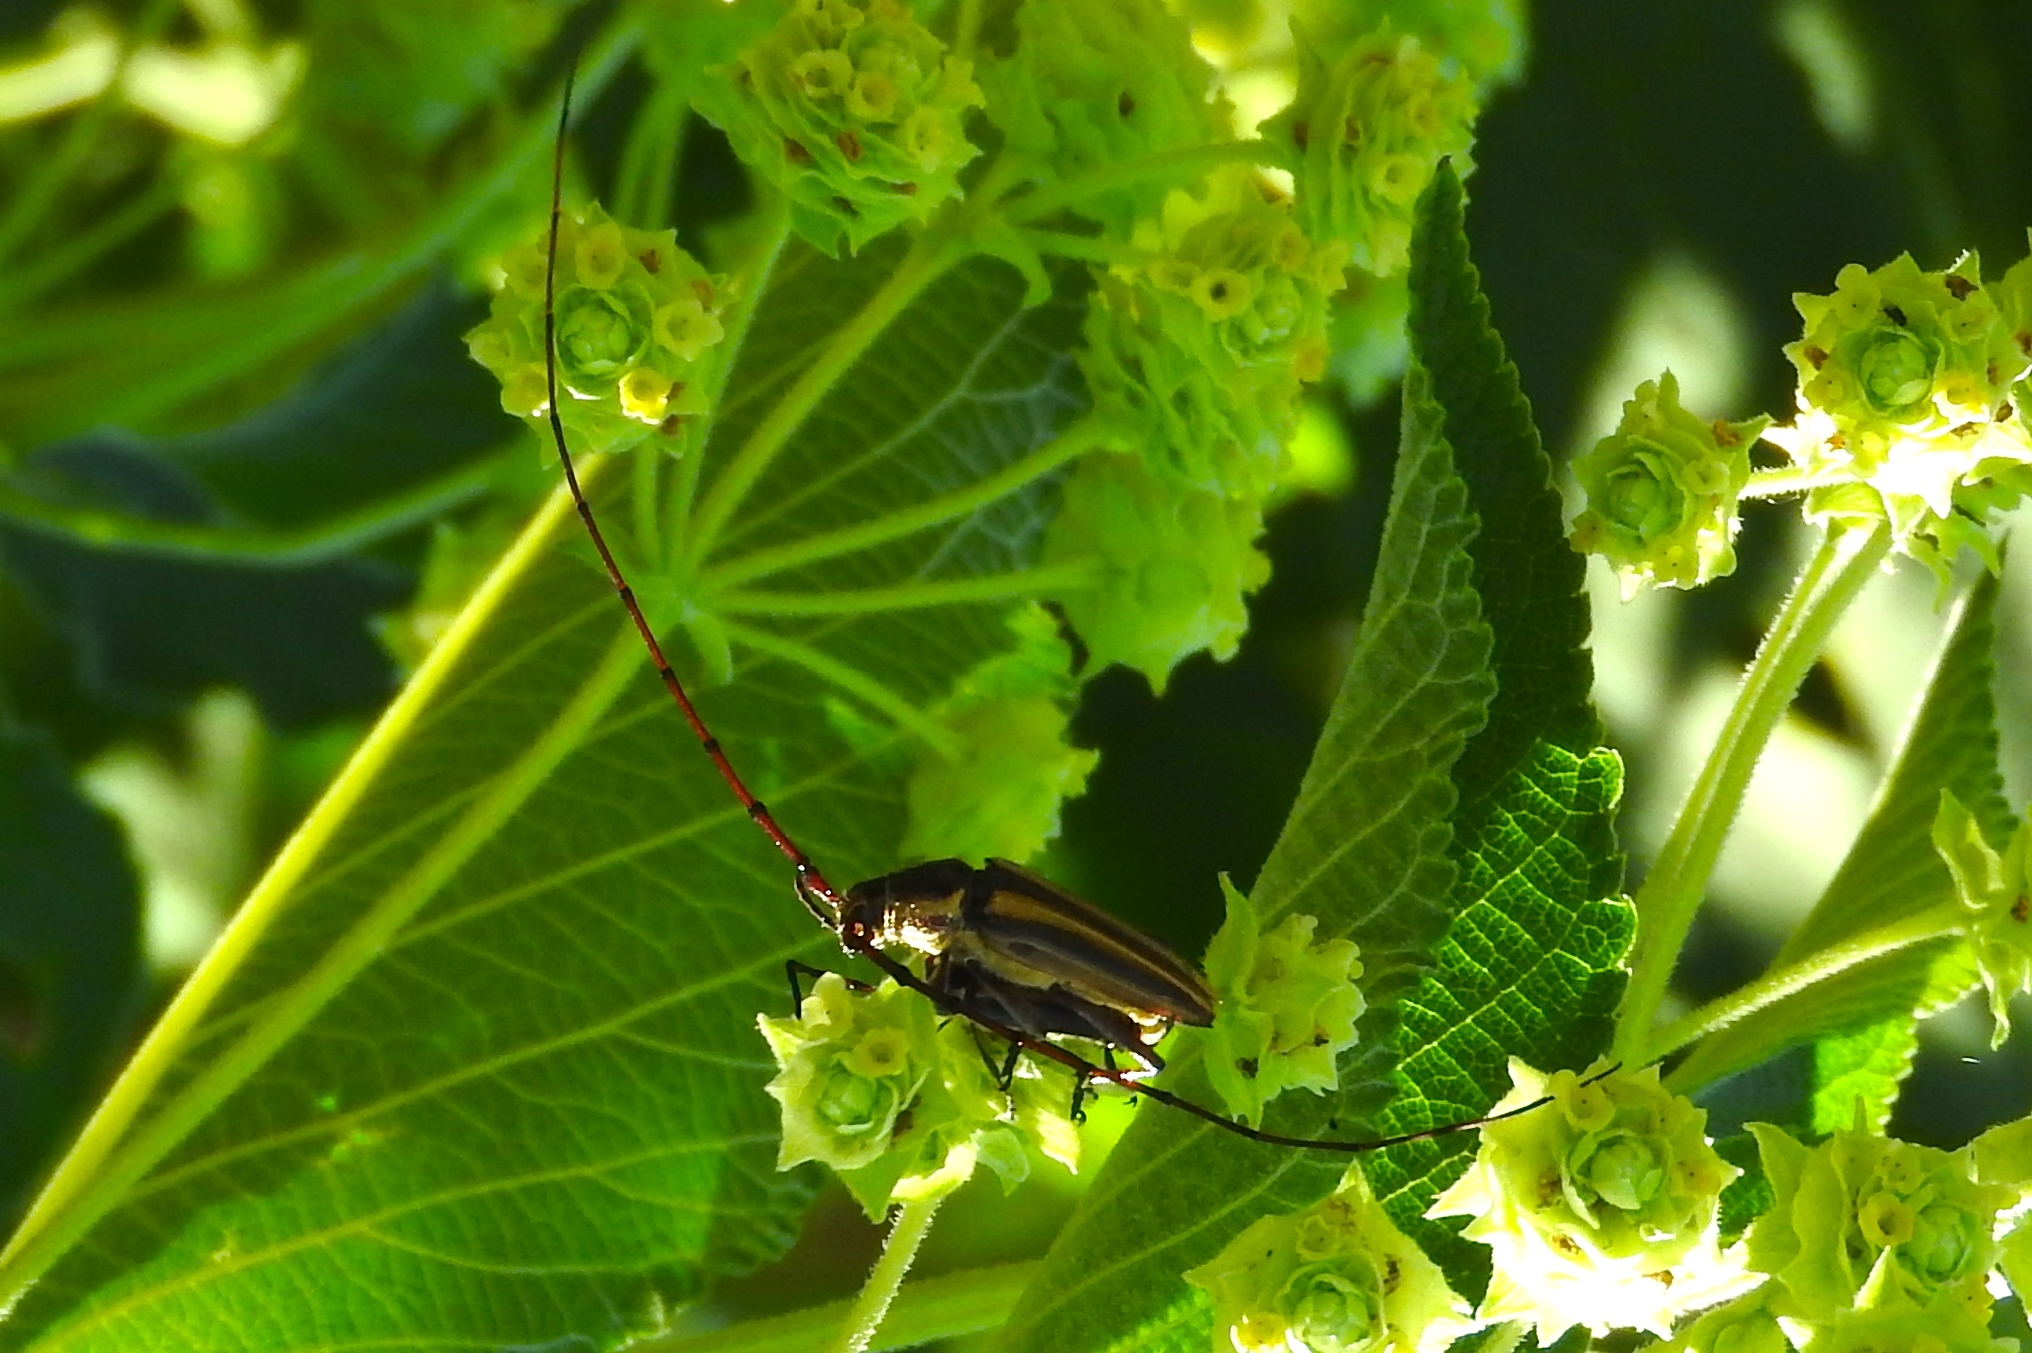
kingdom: Animalia
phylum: Arthropoda
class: Insecta
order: Coleoptera
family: Cerambycidae
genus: Sphaenothecus
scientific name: Sphaenothecus maccartyi
